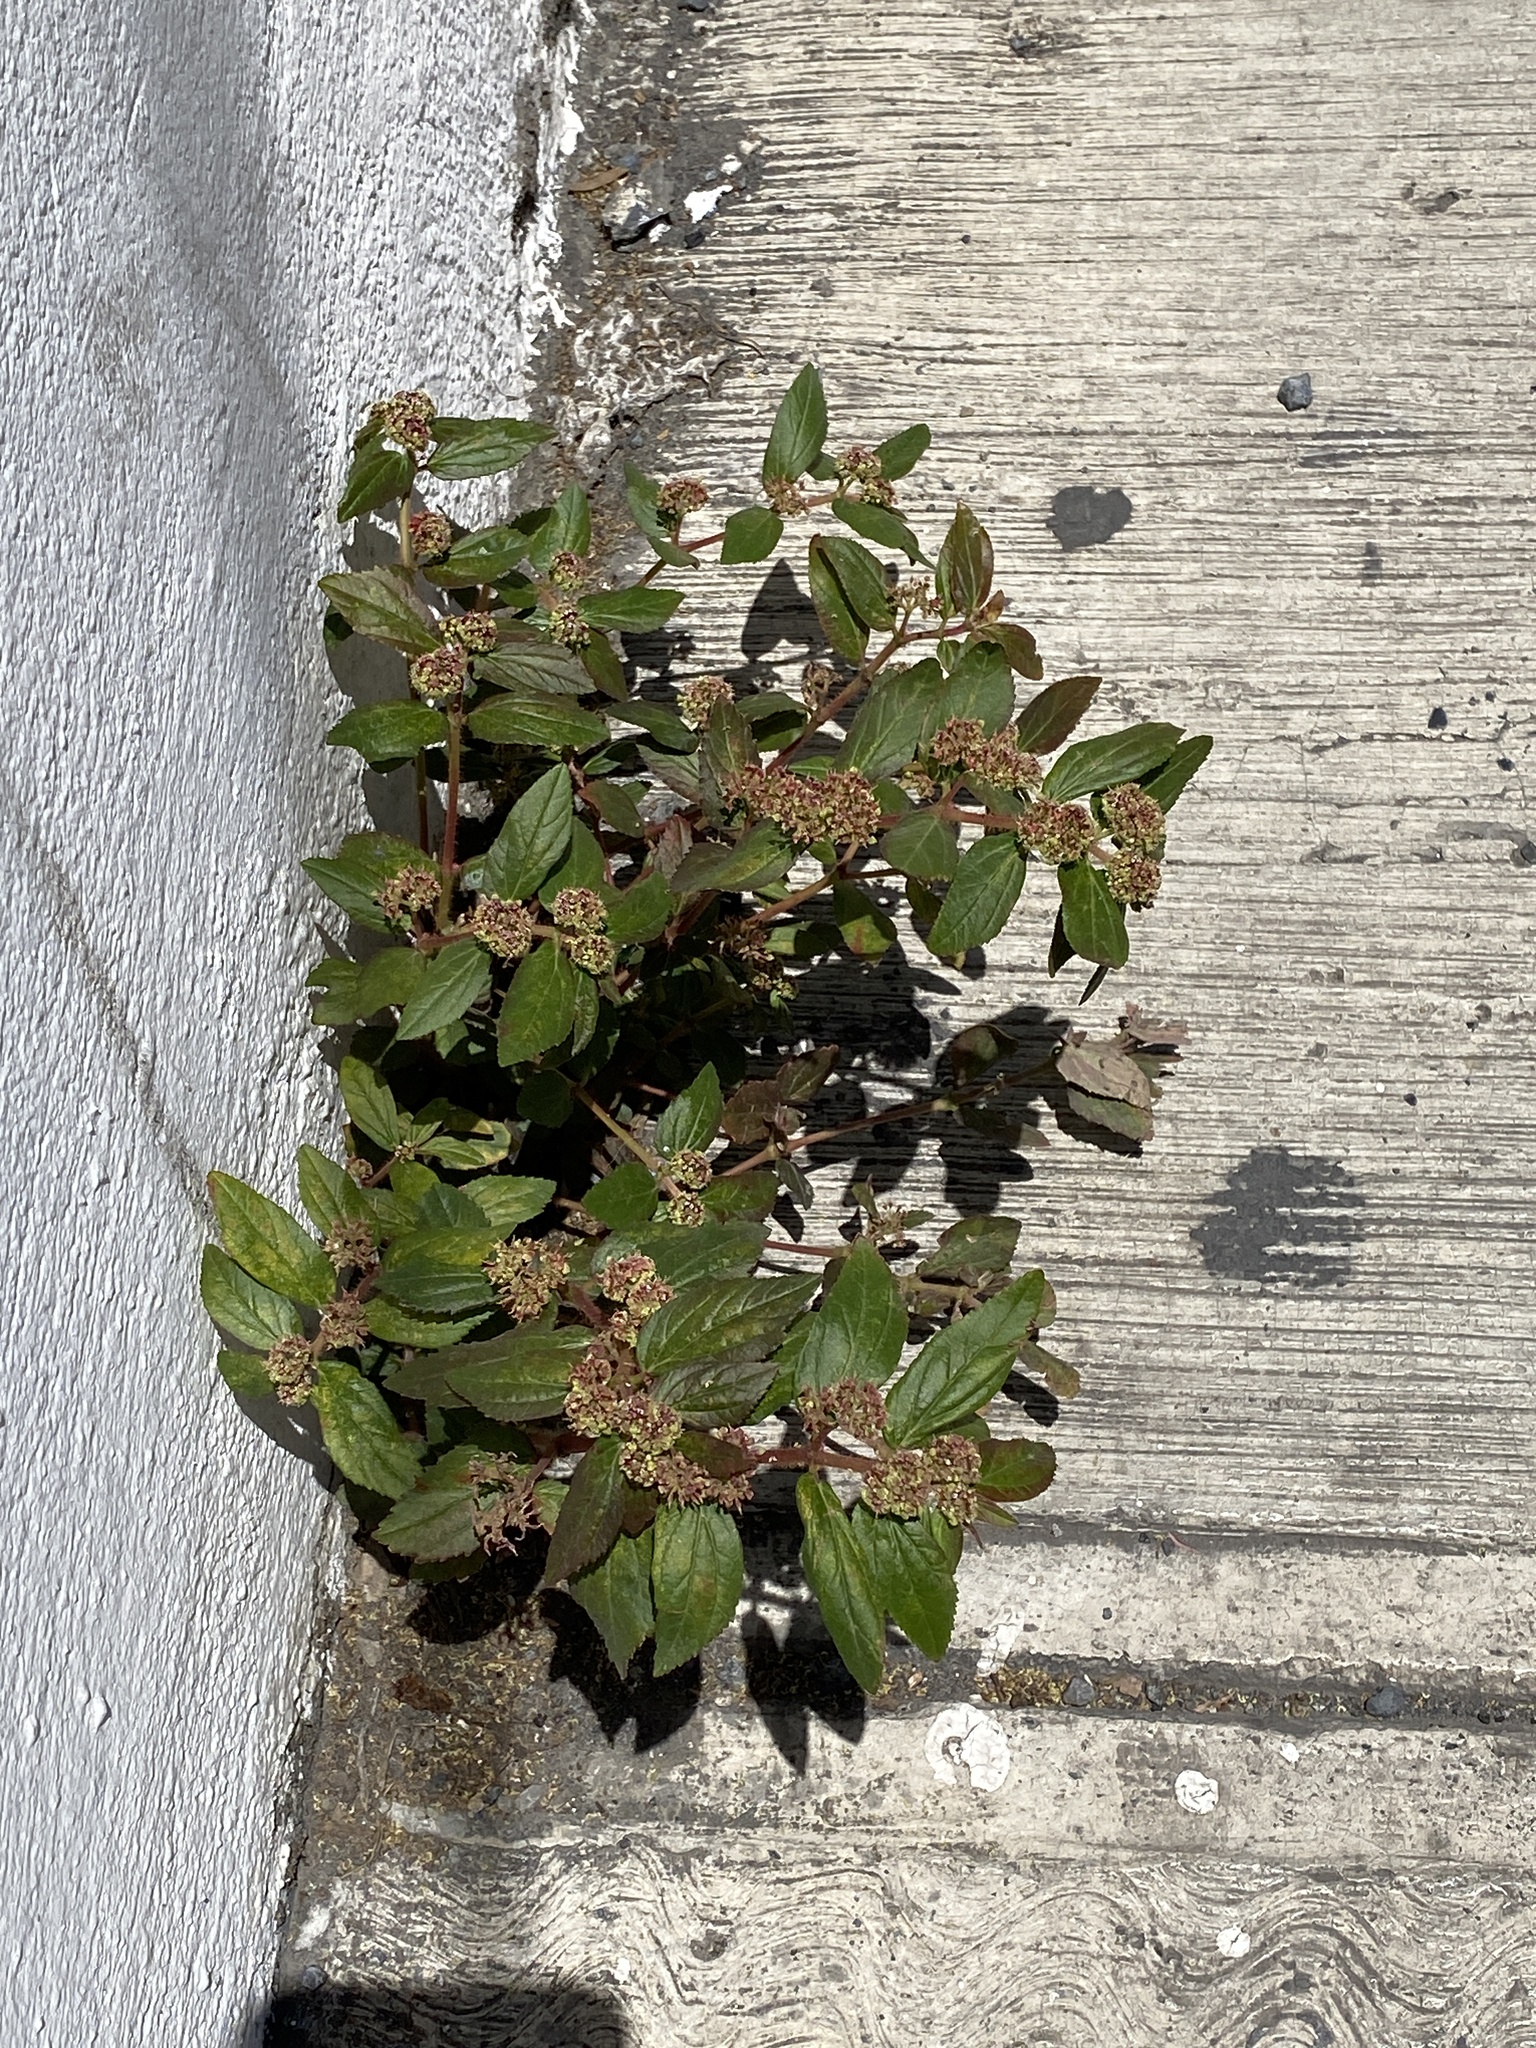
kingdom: Plantae
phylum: Tracheophyta
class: Magnoliopsida
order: Malpighiales
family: Euphorbiaceae
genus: Euphorbia
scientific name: Euphorbia hirta
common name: Pillpod sandmat
